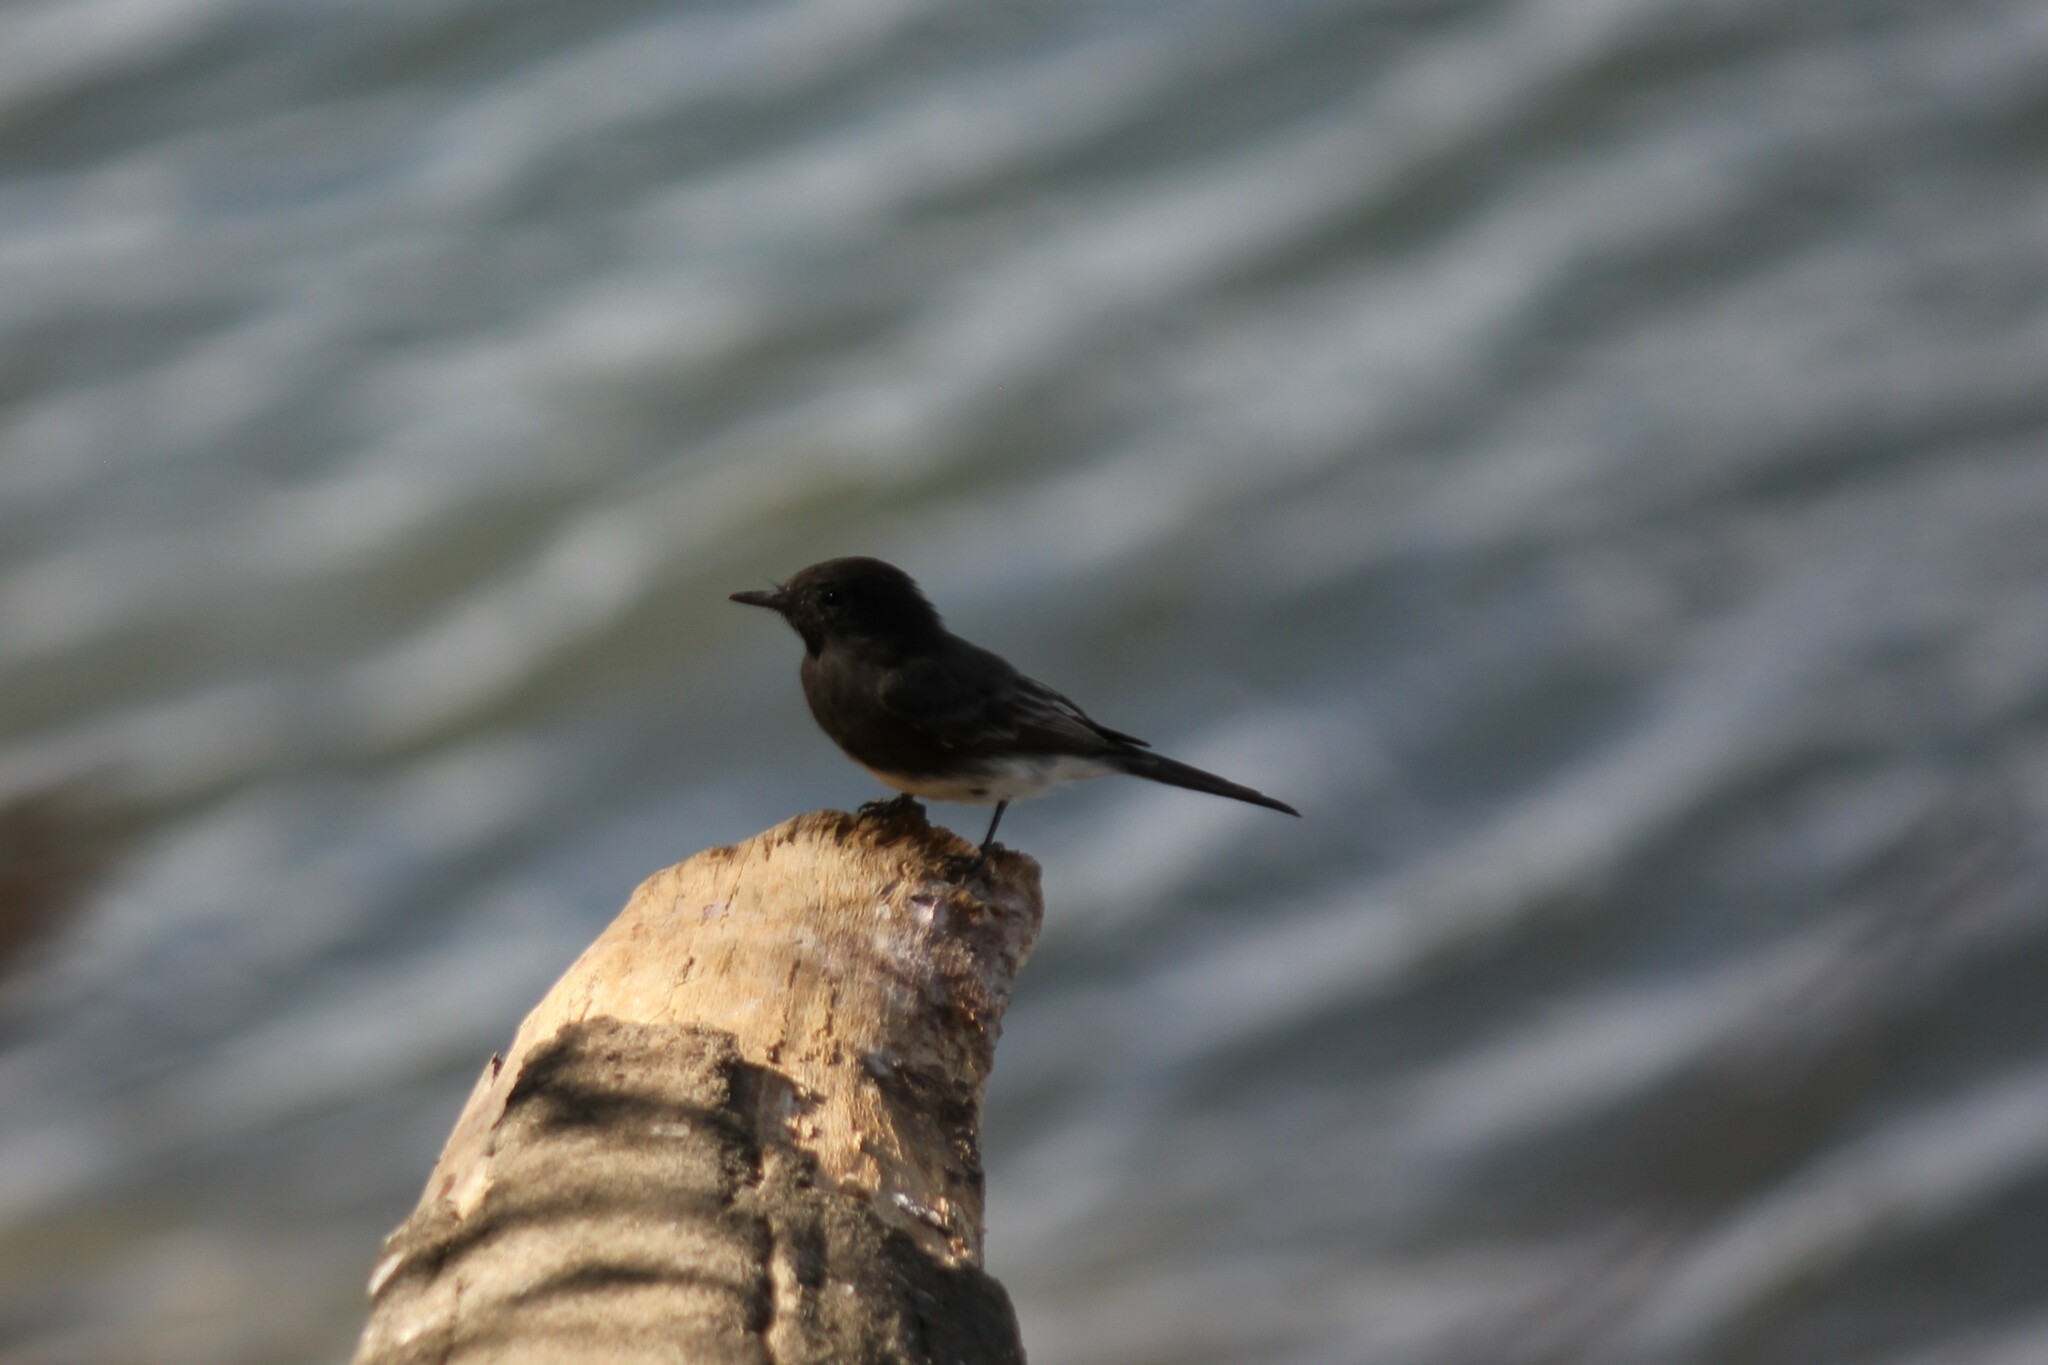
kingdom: Animalia
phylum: Chordata
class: Aves
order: Passeriformes
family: Tyrannidae
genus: Sayornis
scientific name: Sayornis nigricans
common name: Black phoebe
